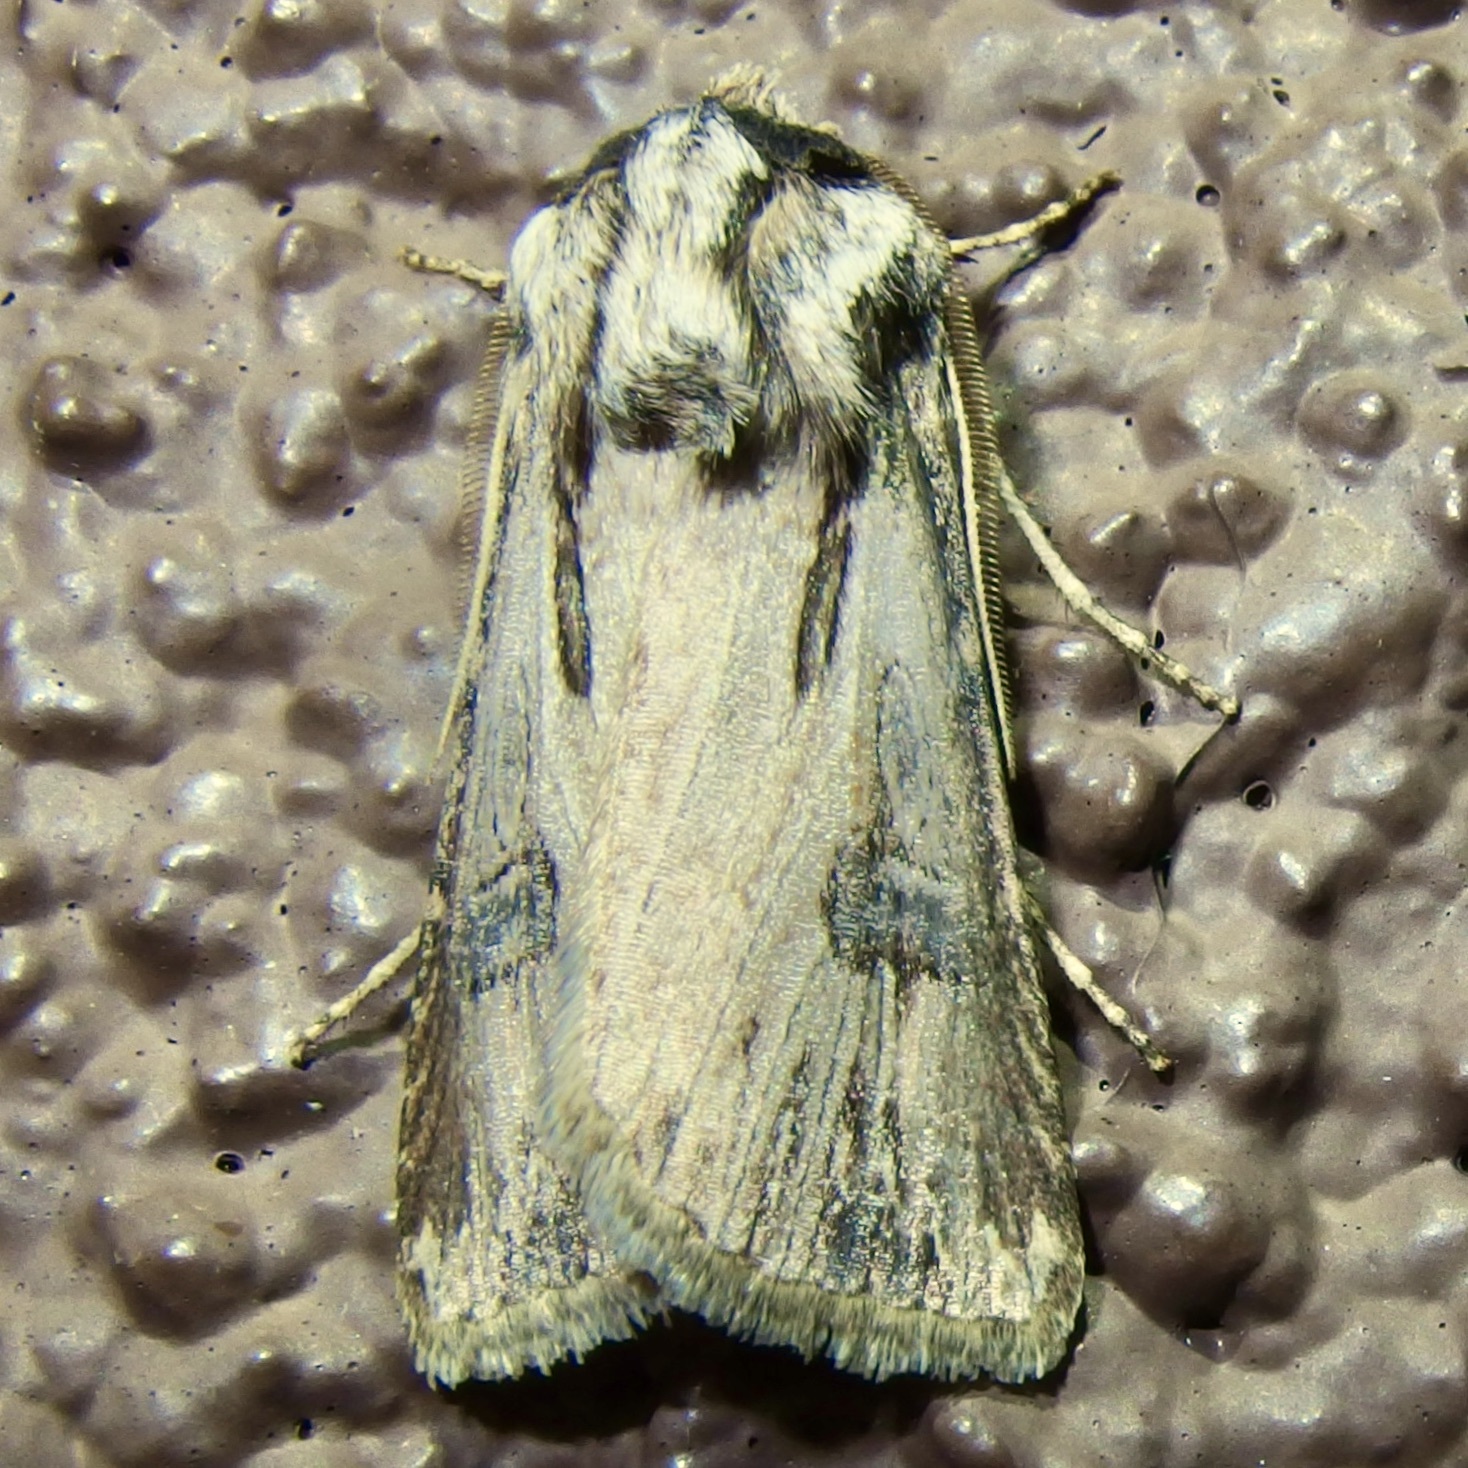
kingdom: Animalia
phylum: Arthropoda
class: Insecta
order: Lepidoptera
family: Noctuidae
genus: Agrotis
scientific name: Agrotis venerabilis
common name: Venerable dart
